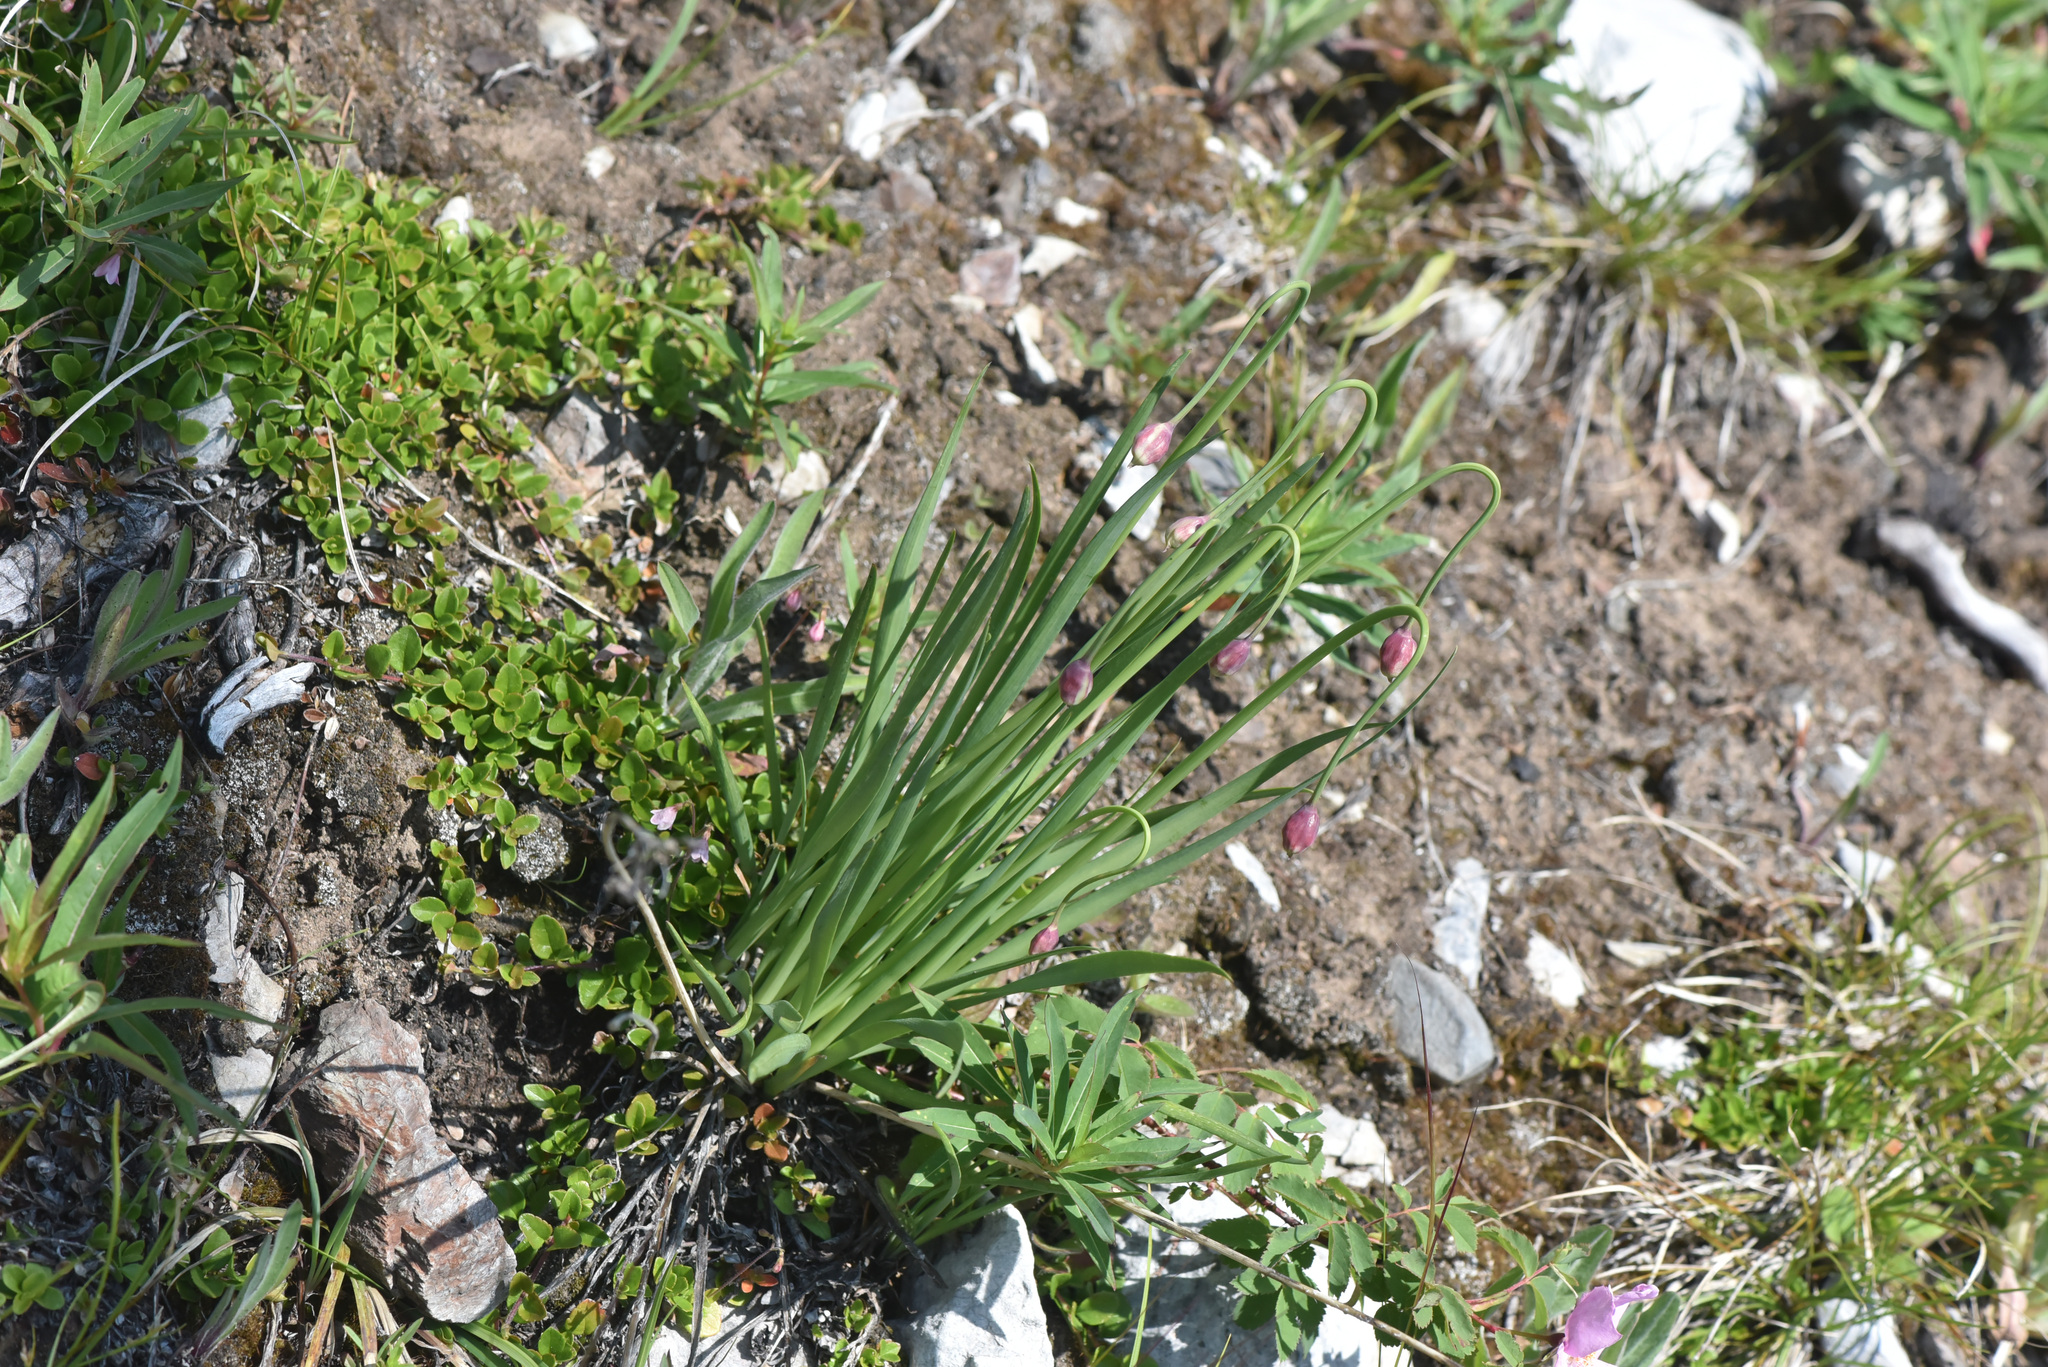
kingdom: Plantae
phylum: Tracheophyta
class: Liliopsida
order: Asparagales
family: Amaryllidaceae
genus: Allium
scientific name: Allium cernuum
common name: Nodding onion
